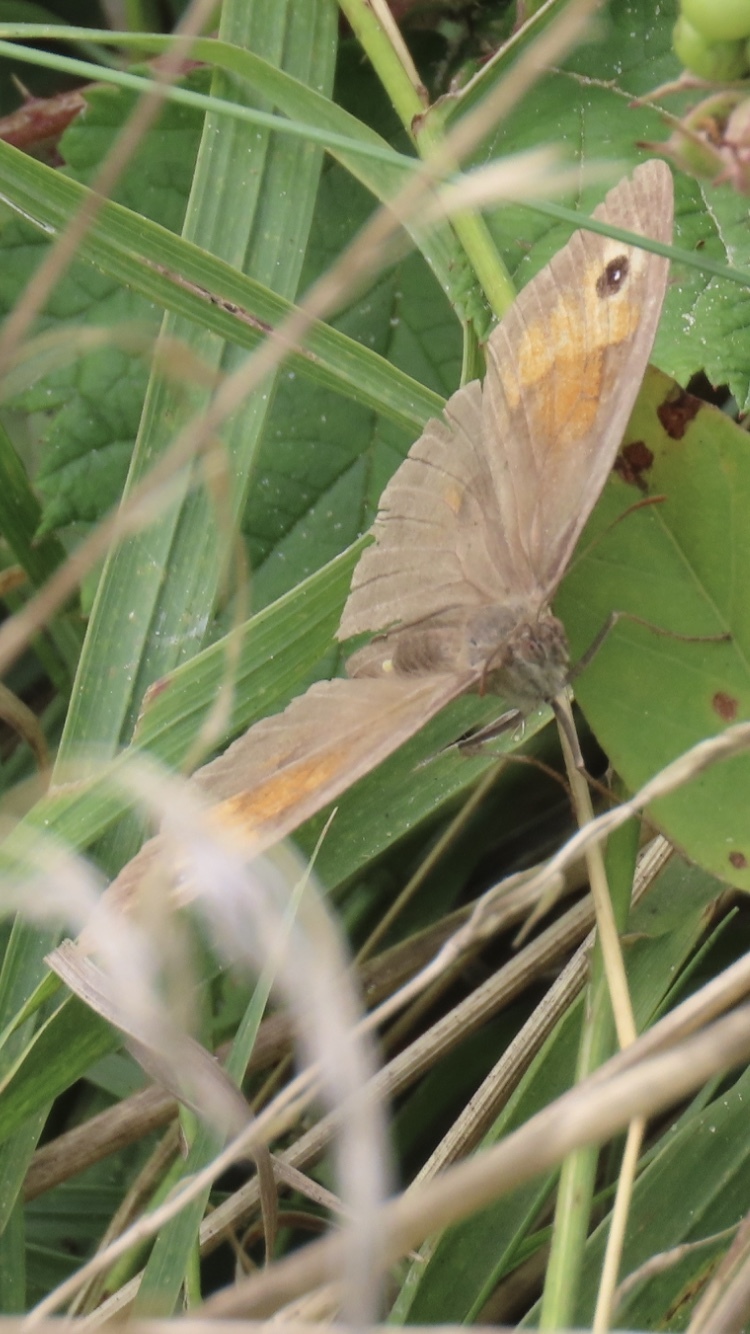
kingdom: Animalia
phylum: Arthropoda
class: Insecta
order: Lepidoptera
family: Nymphalidae
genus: Maniola
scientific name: Maniola jurtina
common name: Meadow brown
